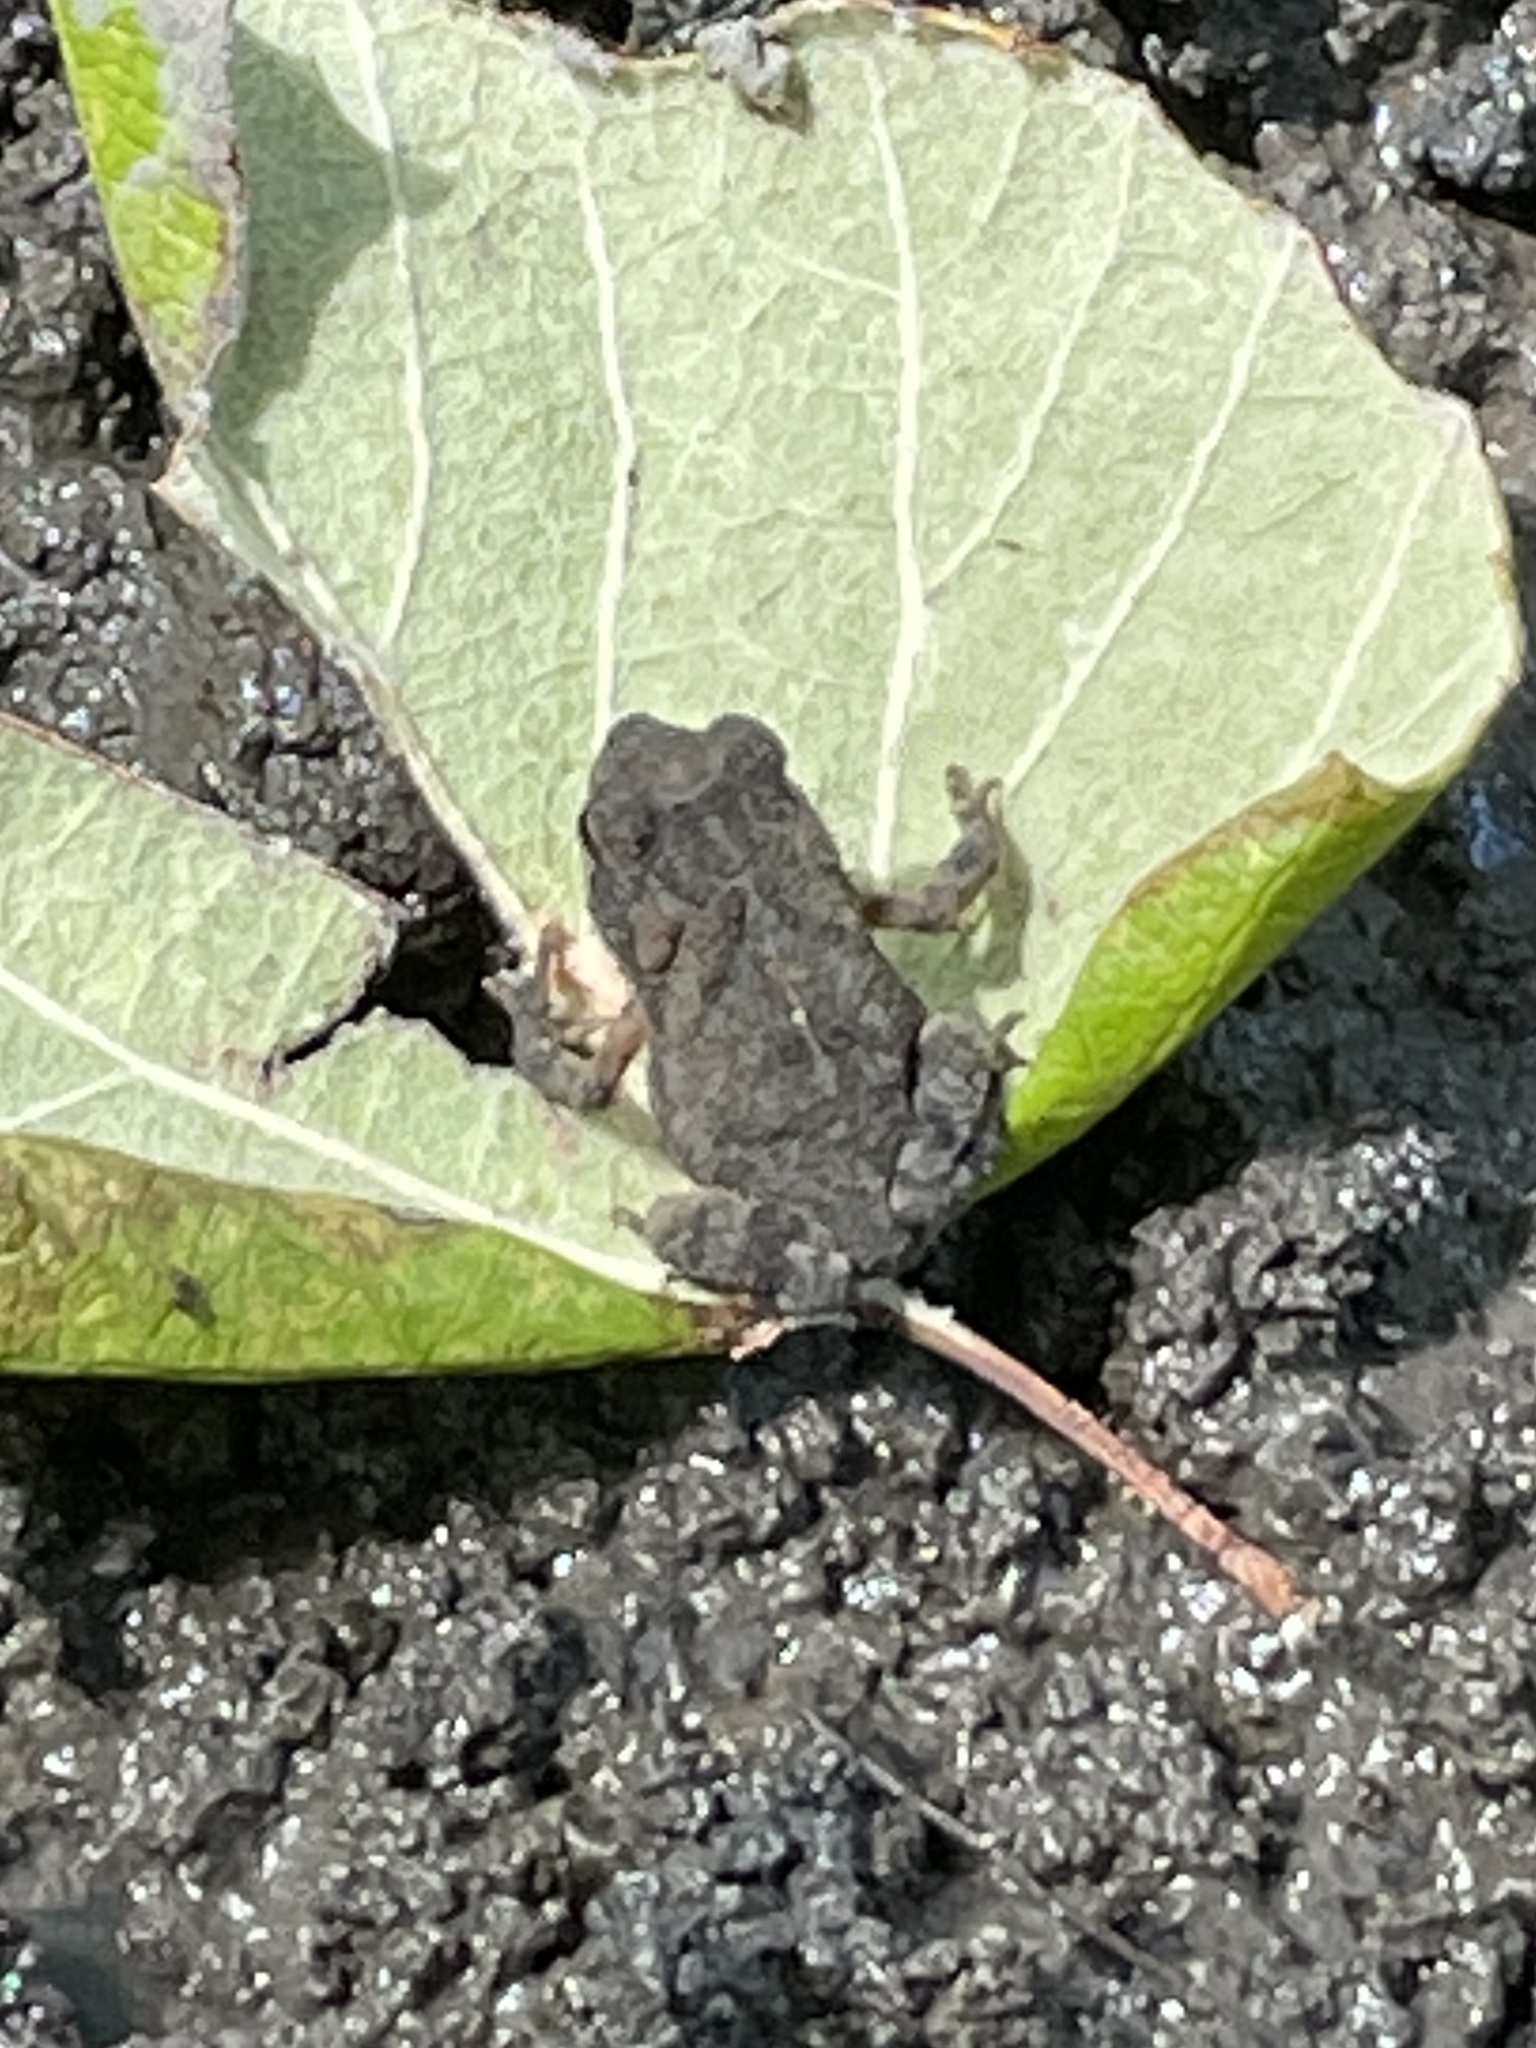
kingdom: Animalia
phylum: Chordata
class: Amphibia
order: Anura
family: Bufonidae
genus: Incilius
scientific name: Incilius nebulifer
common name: Gulf coast toad
